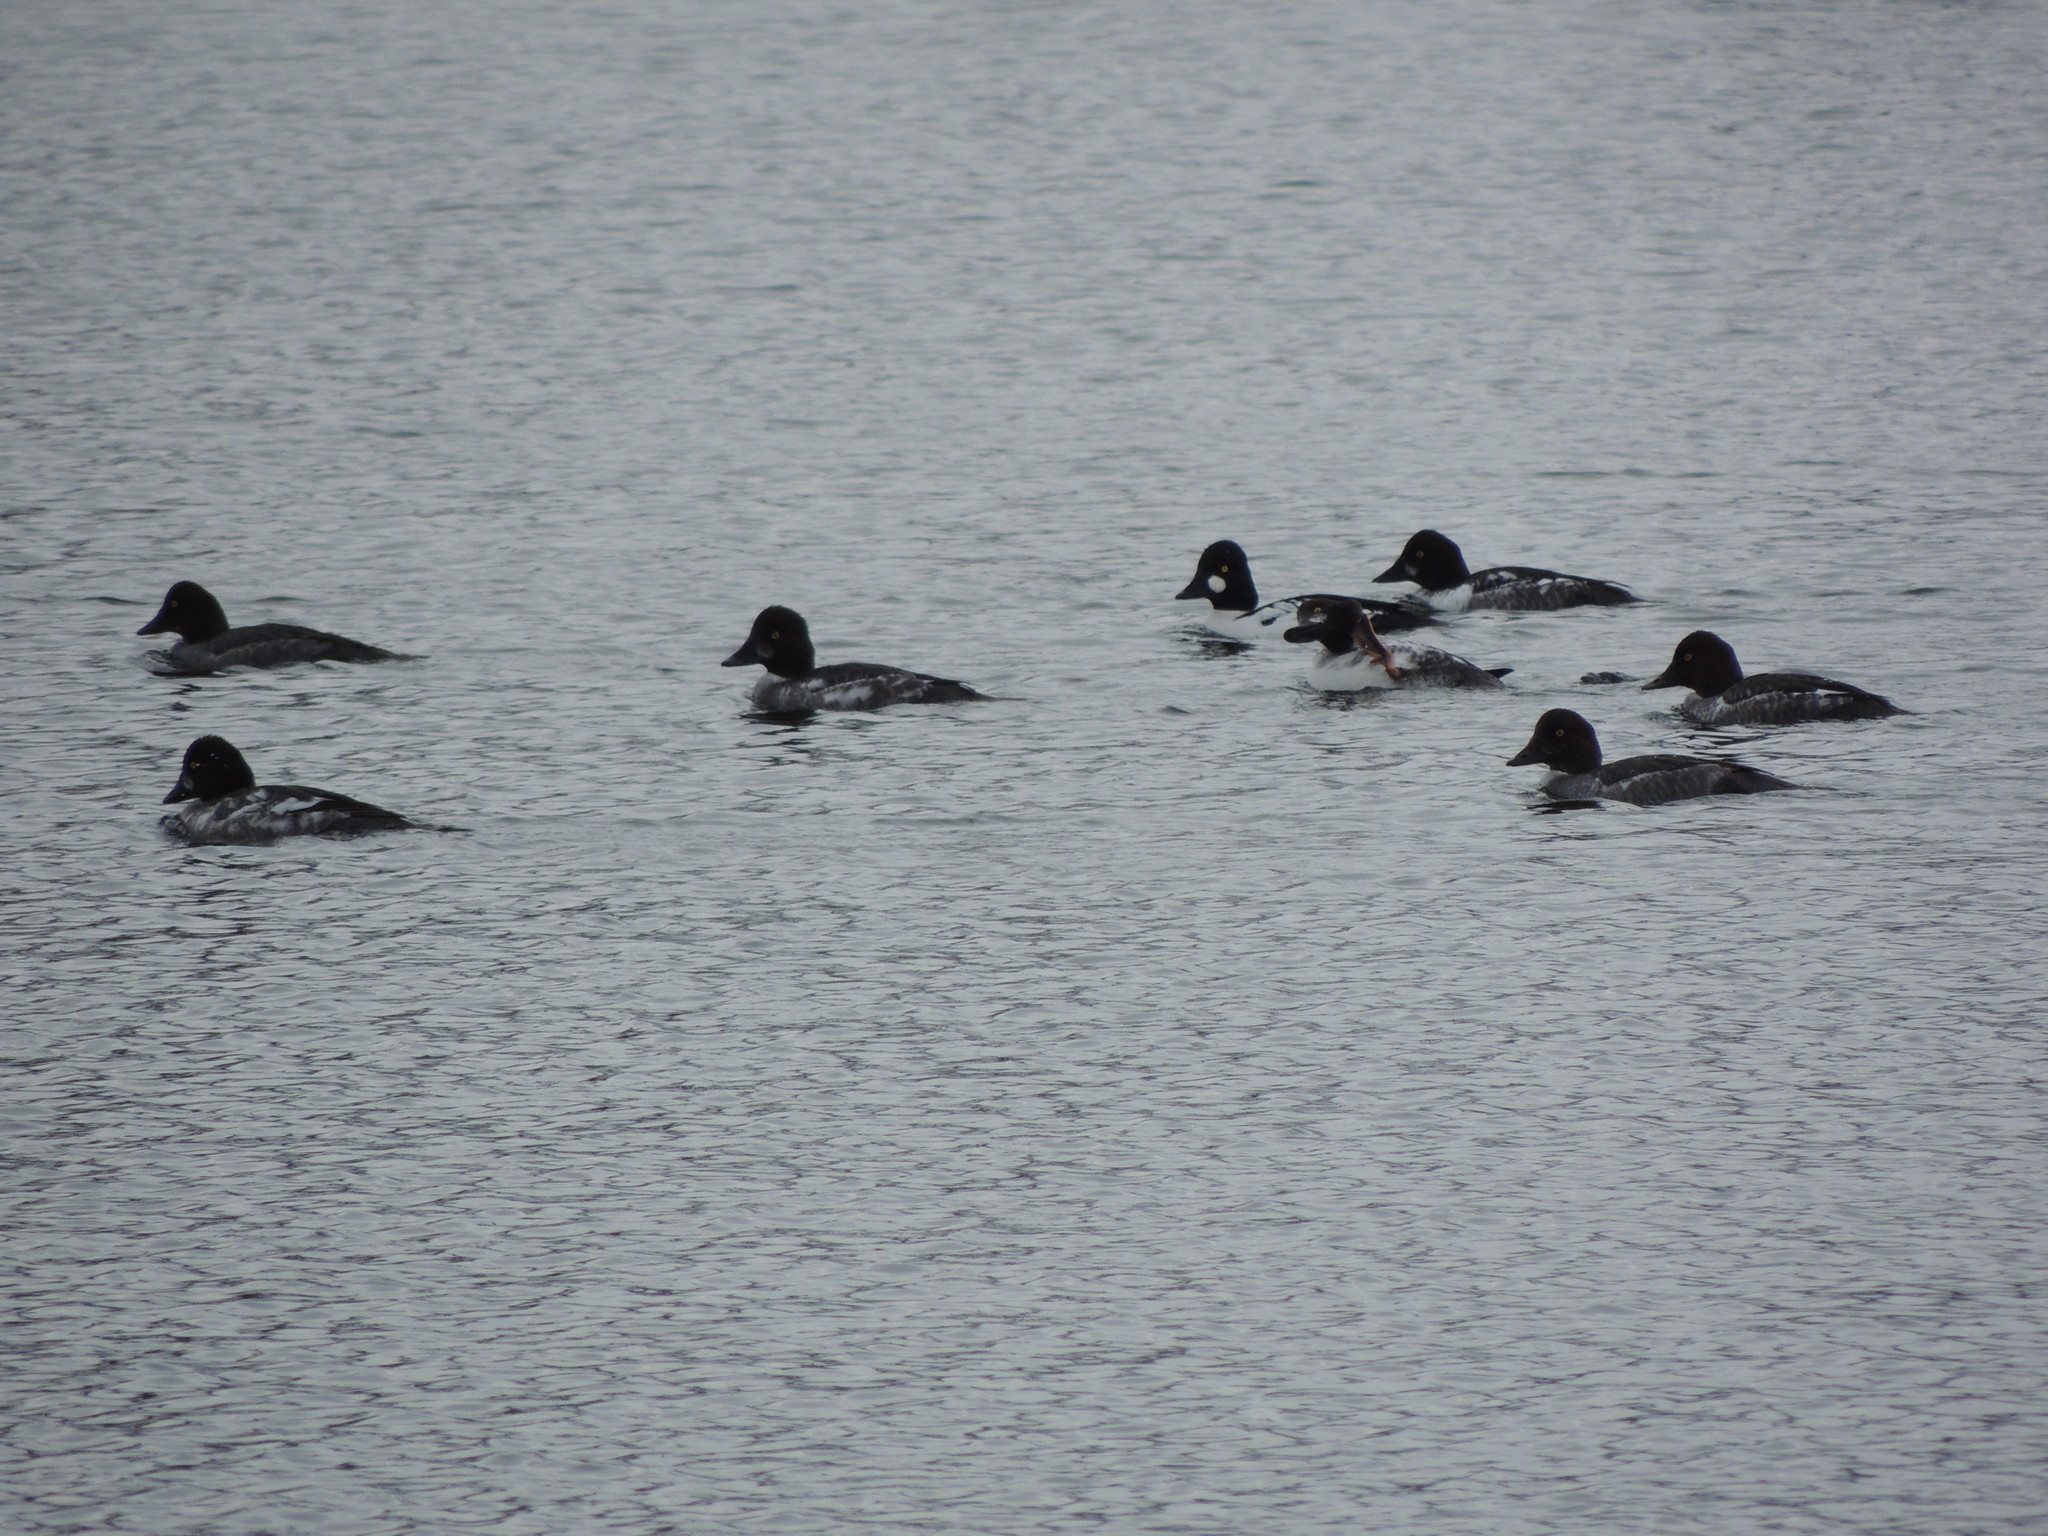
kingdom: Animalia
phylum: Chordata
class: Aves
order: Anseriformes
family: Anatidae
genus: Bucephala
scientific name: Bucephala clangula
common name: Common goldeneye
